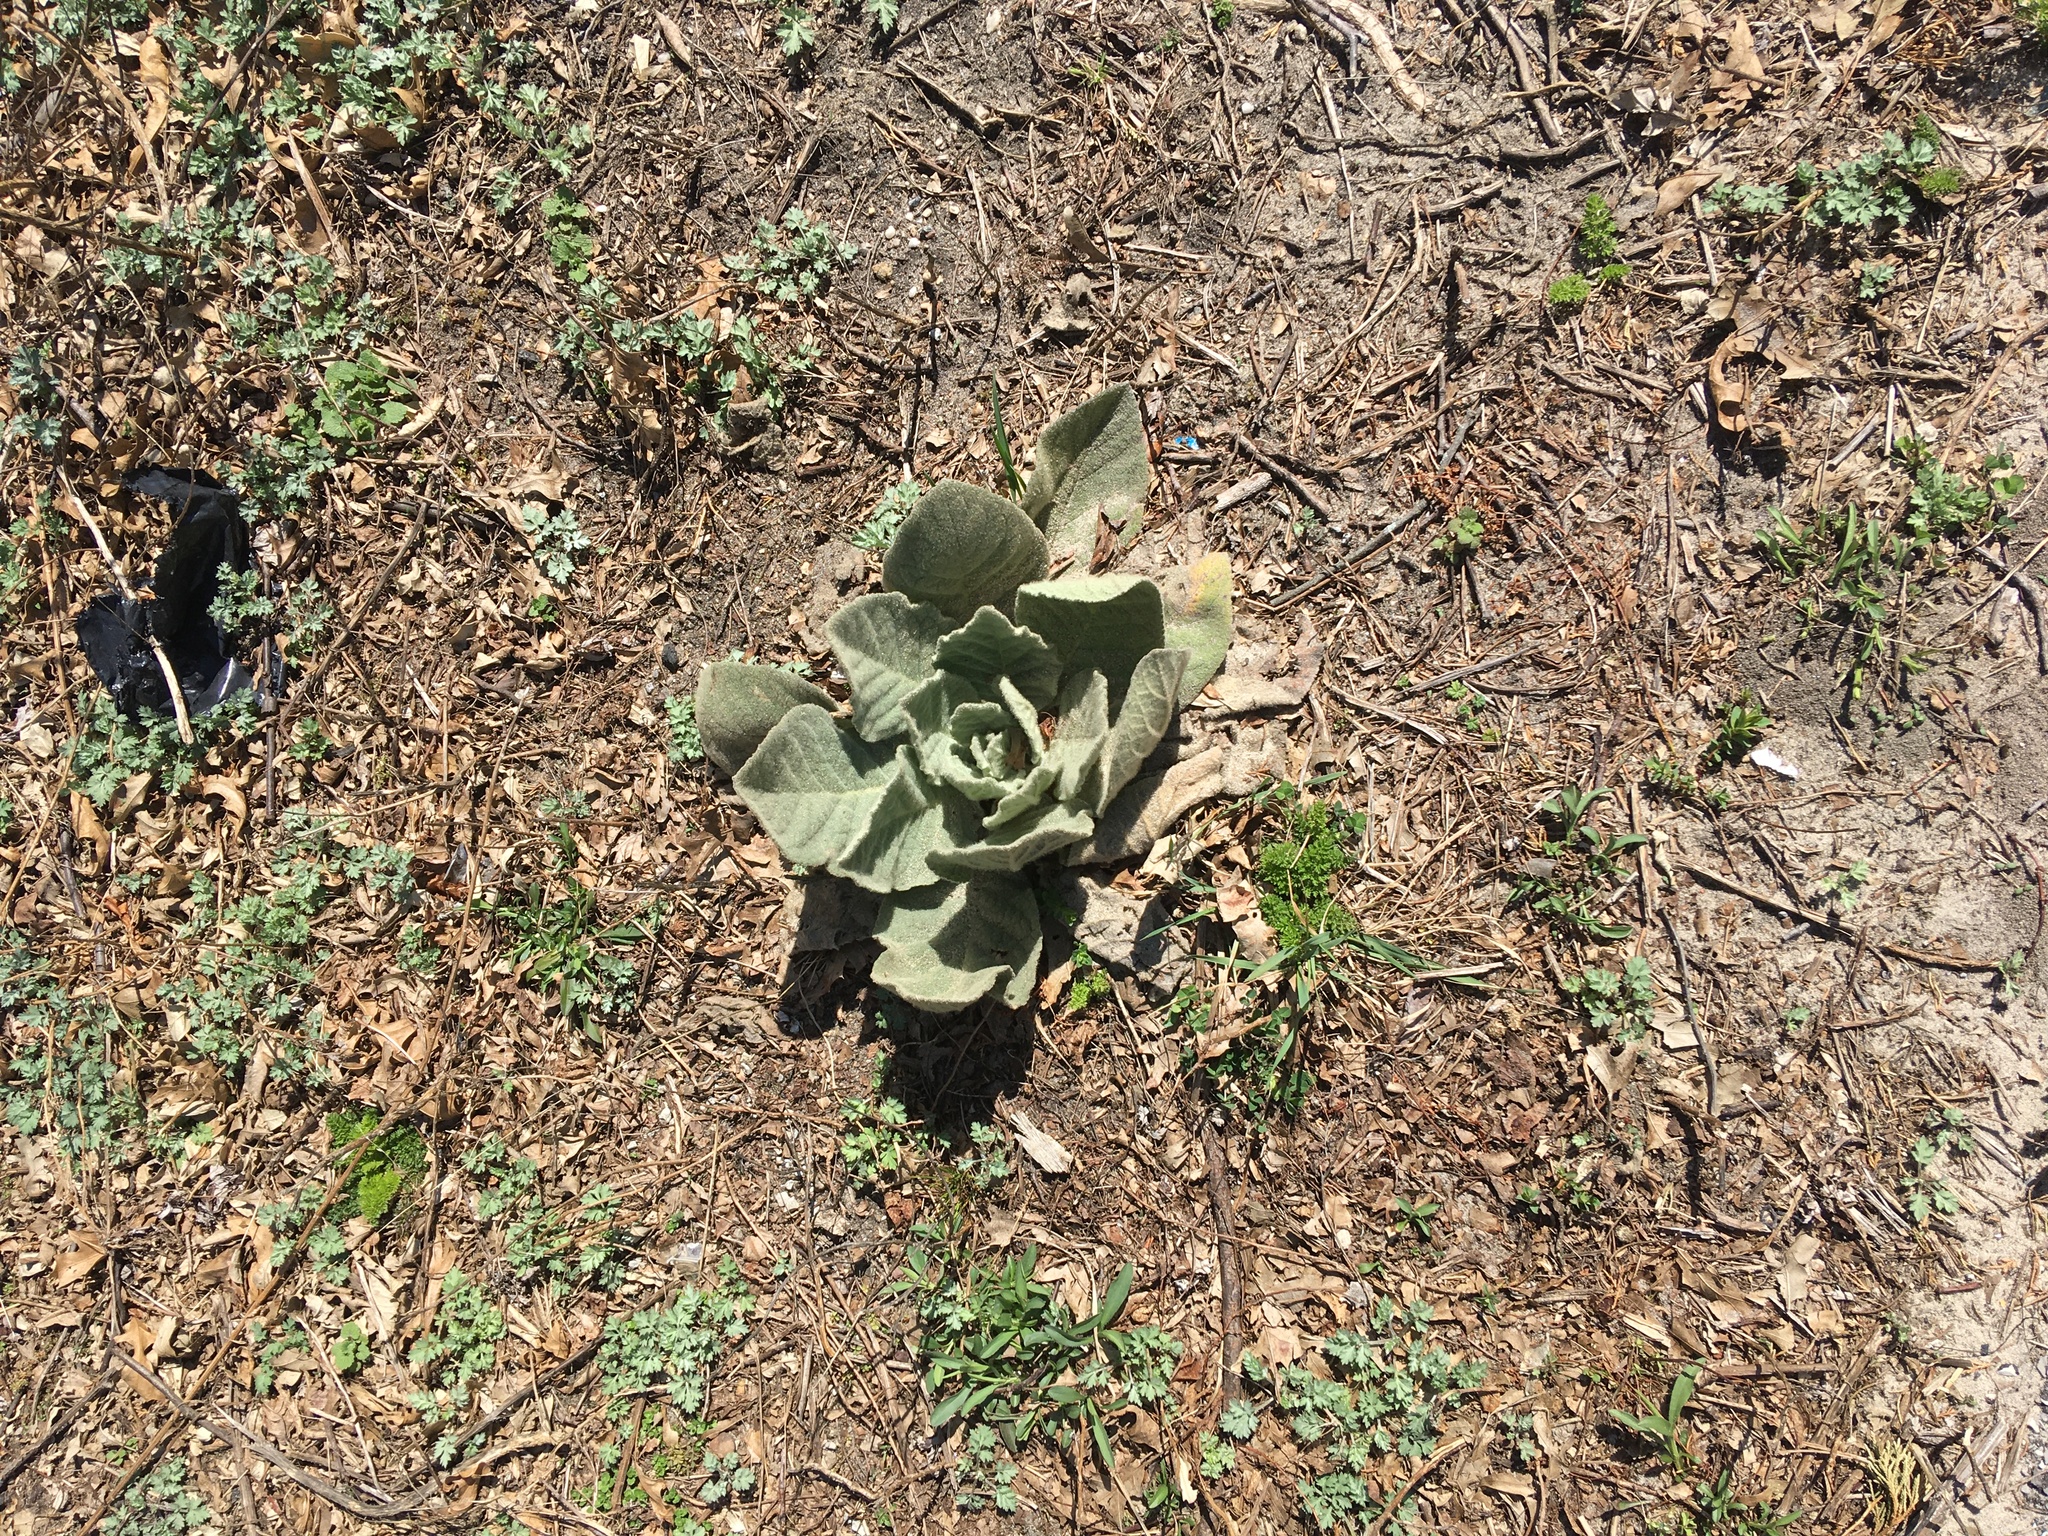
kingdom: Plantae
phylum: Tracheophyta
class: Magnoliopsida
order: Lamiales
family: Scrophulariaceae
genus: Verbascum
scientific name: Verbascum thapsus
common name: Common mullein
